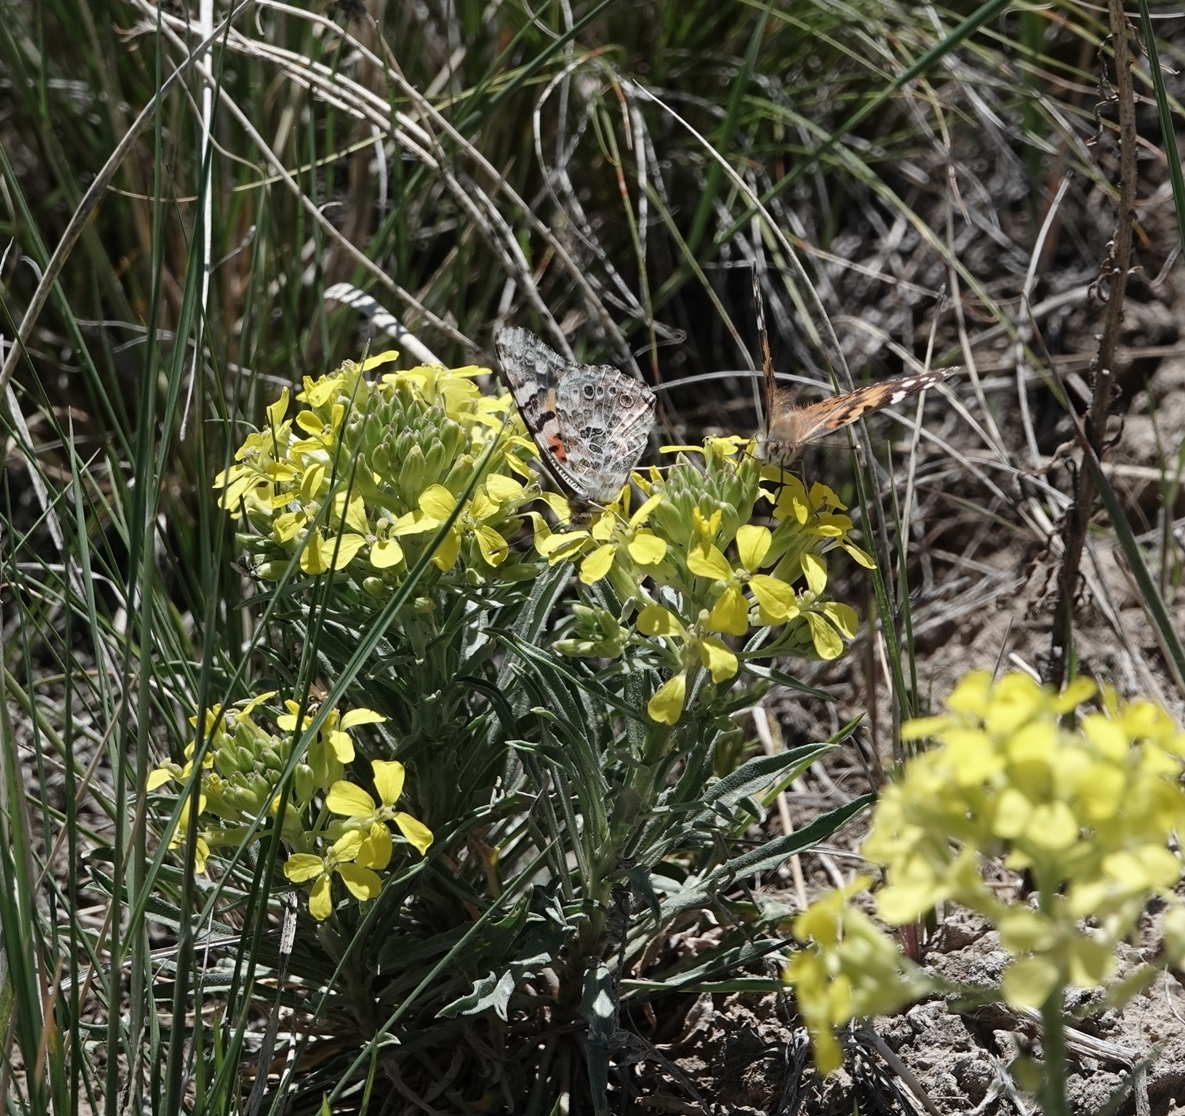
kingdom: Animalia
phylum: Arthropoda
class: Insecta
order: Lepidoptera
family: Nymphalidae
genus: Vanessa
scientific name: Vanessa cardui
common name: Painted lady
